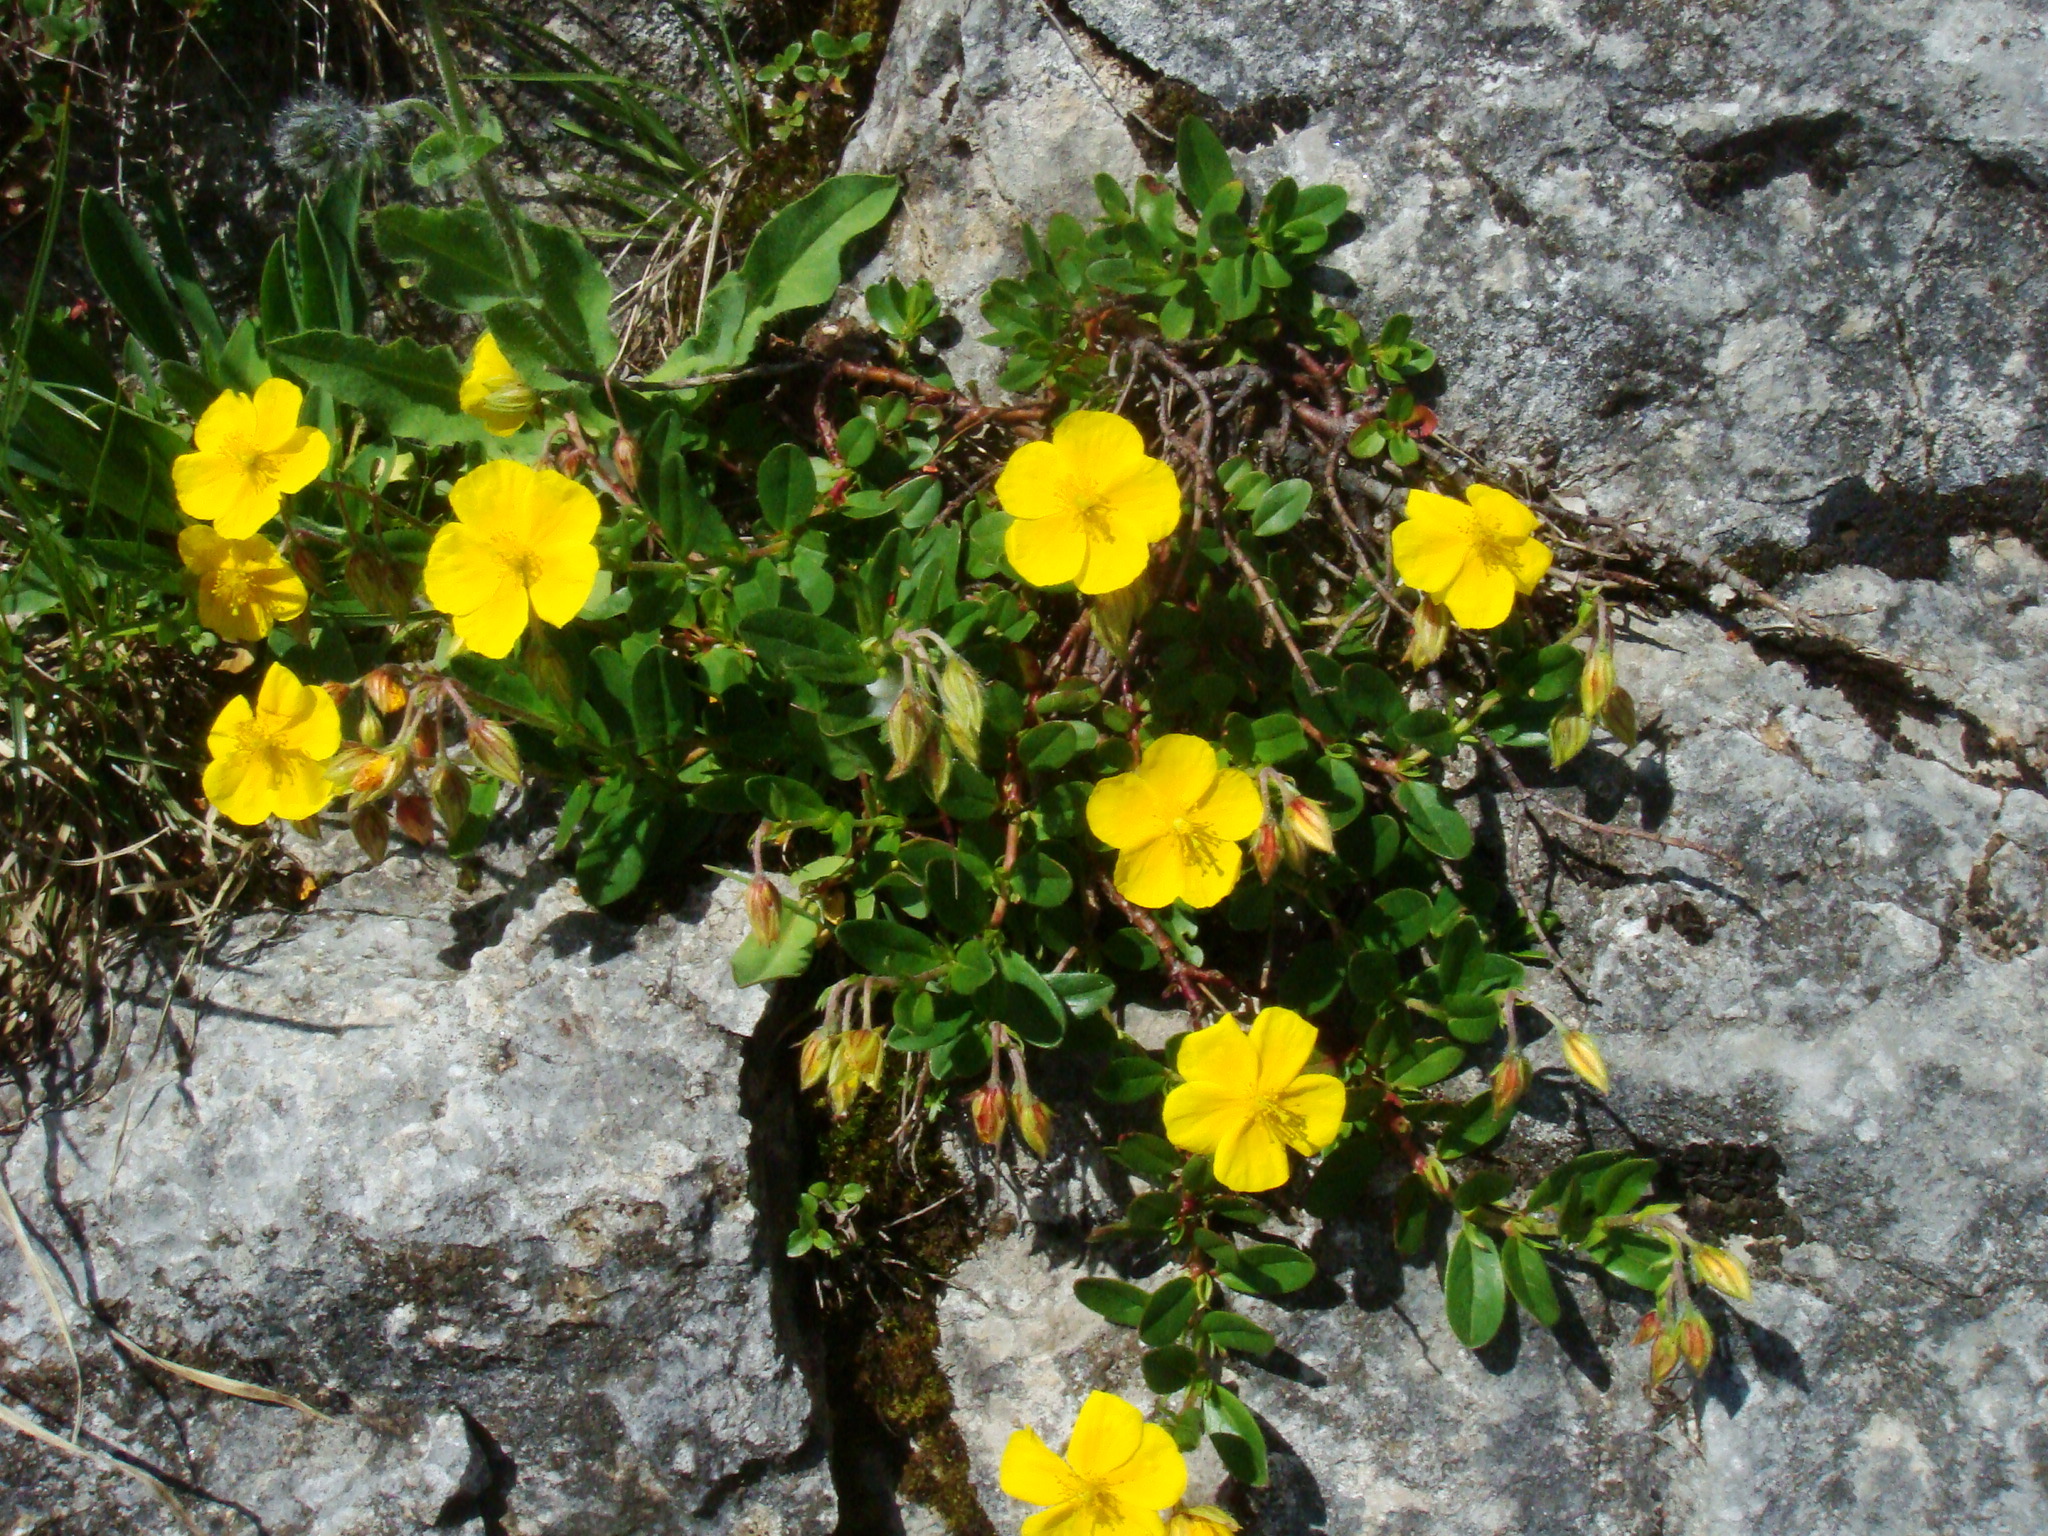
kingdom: Plantae
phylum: Tracheophyta
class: Magnoliopsida
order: Malvales
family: Cistaceae
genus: Helianthemum
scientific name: Helianthemum nummularium
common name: Common rock-rose
